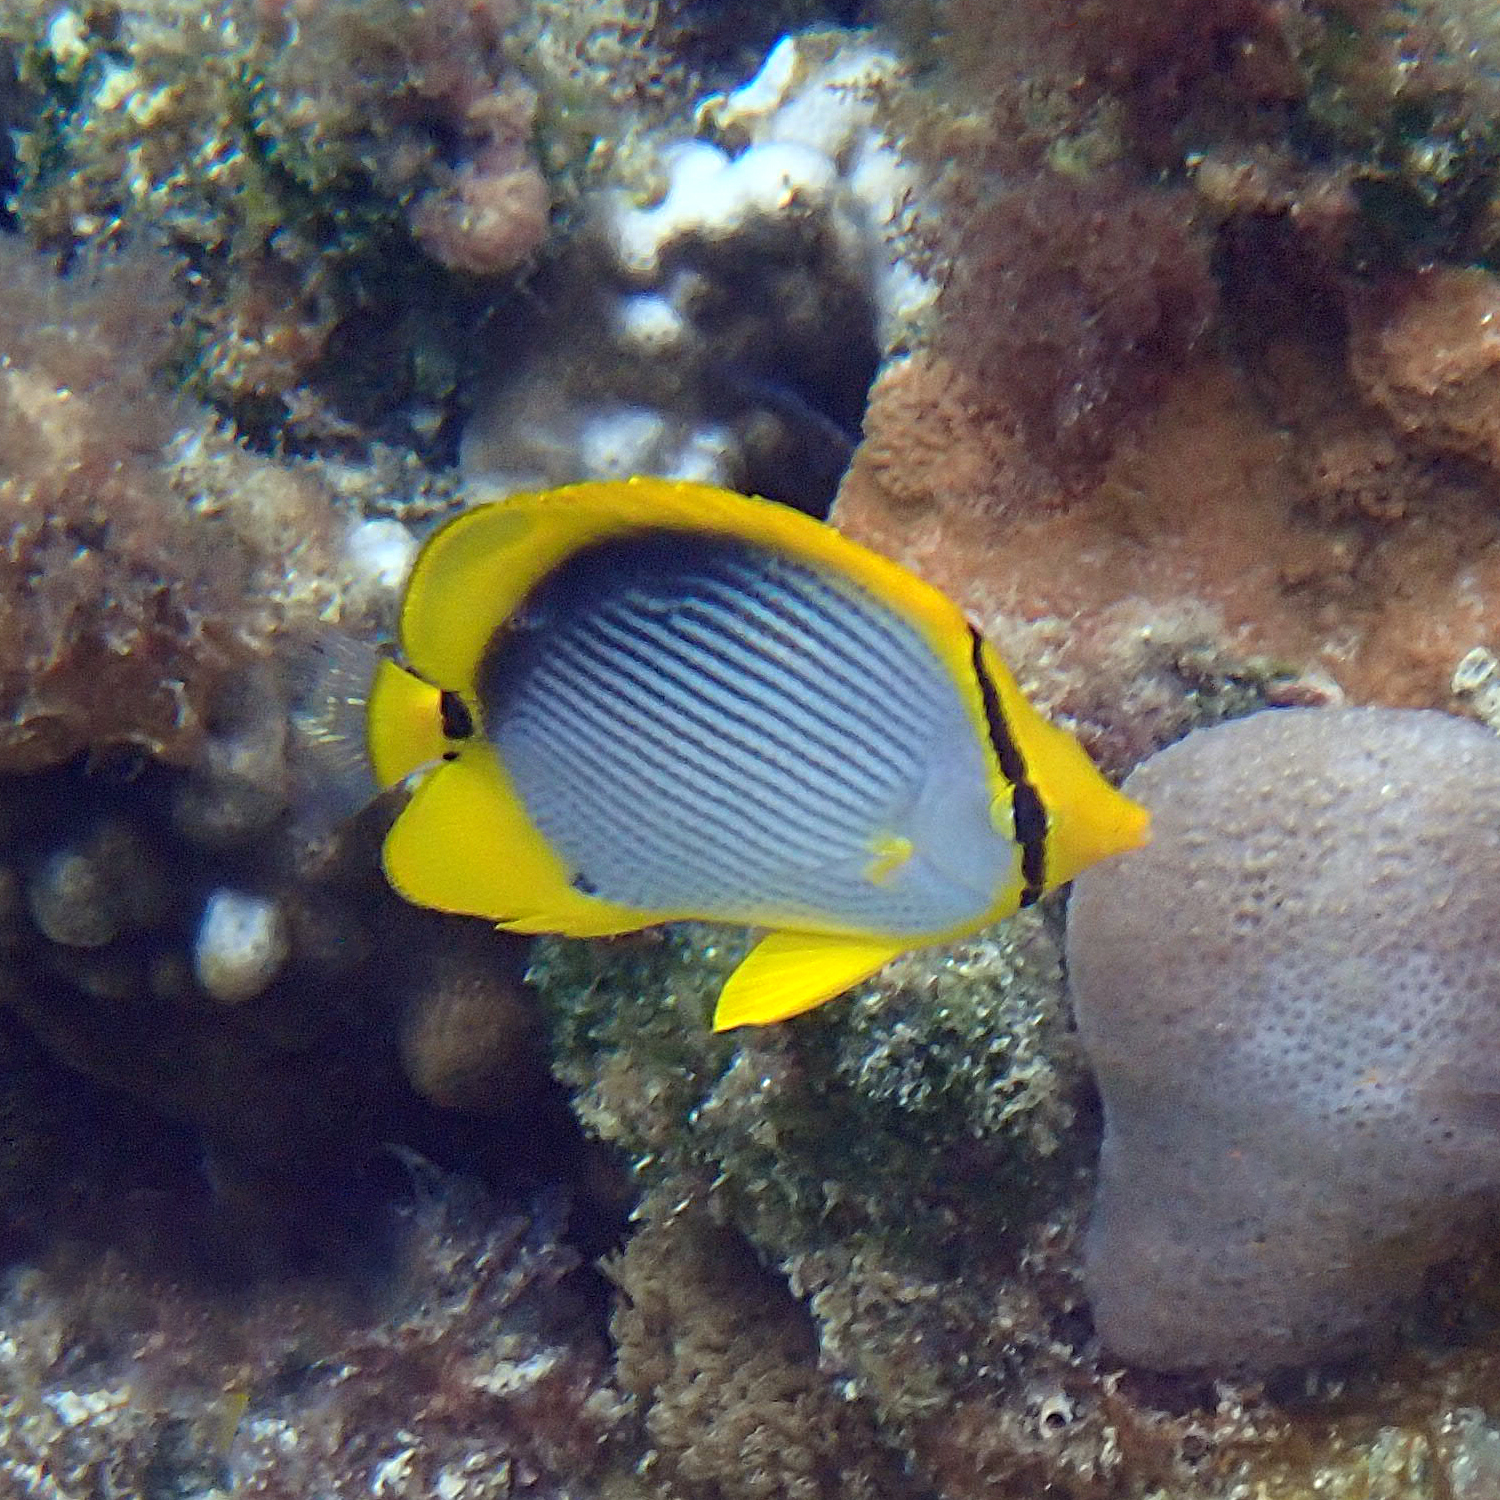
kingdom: Animalia
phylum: Chordata
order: Perciformes
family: Chaetodontidae
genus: Chaetodon
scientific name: Chaetodon melannotus
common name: Blackback butterflyfish
